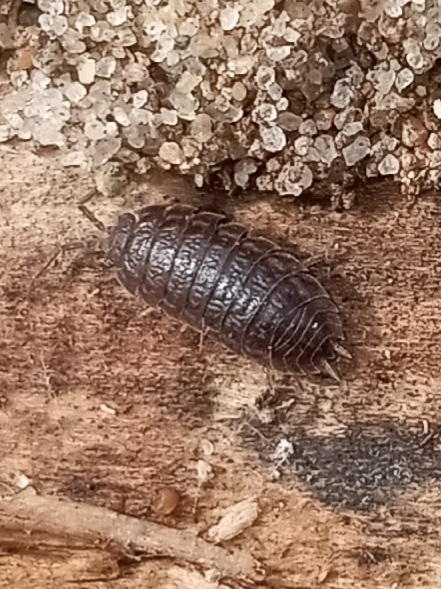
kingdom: Animalia
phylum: Arthropoda
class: Malacostraca
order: Isopoda
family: Trachelipodidae
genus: Trachelipus
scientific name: Trachelipus rathkii
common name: Isopod
